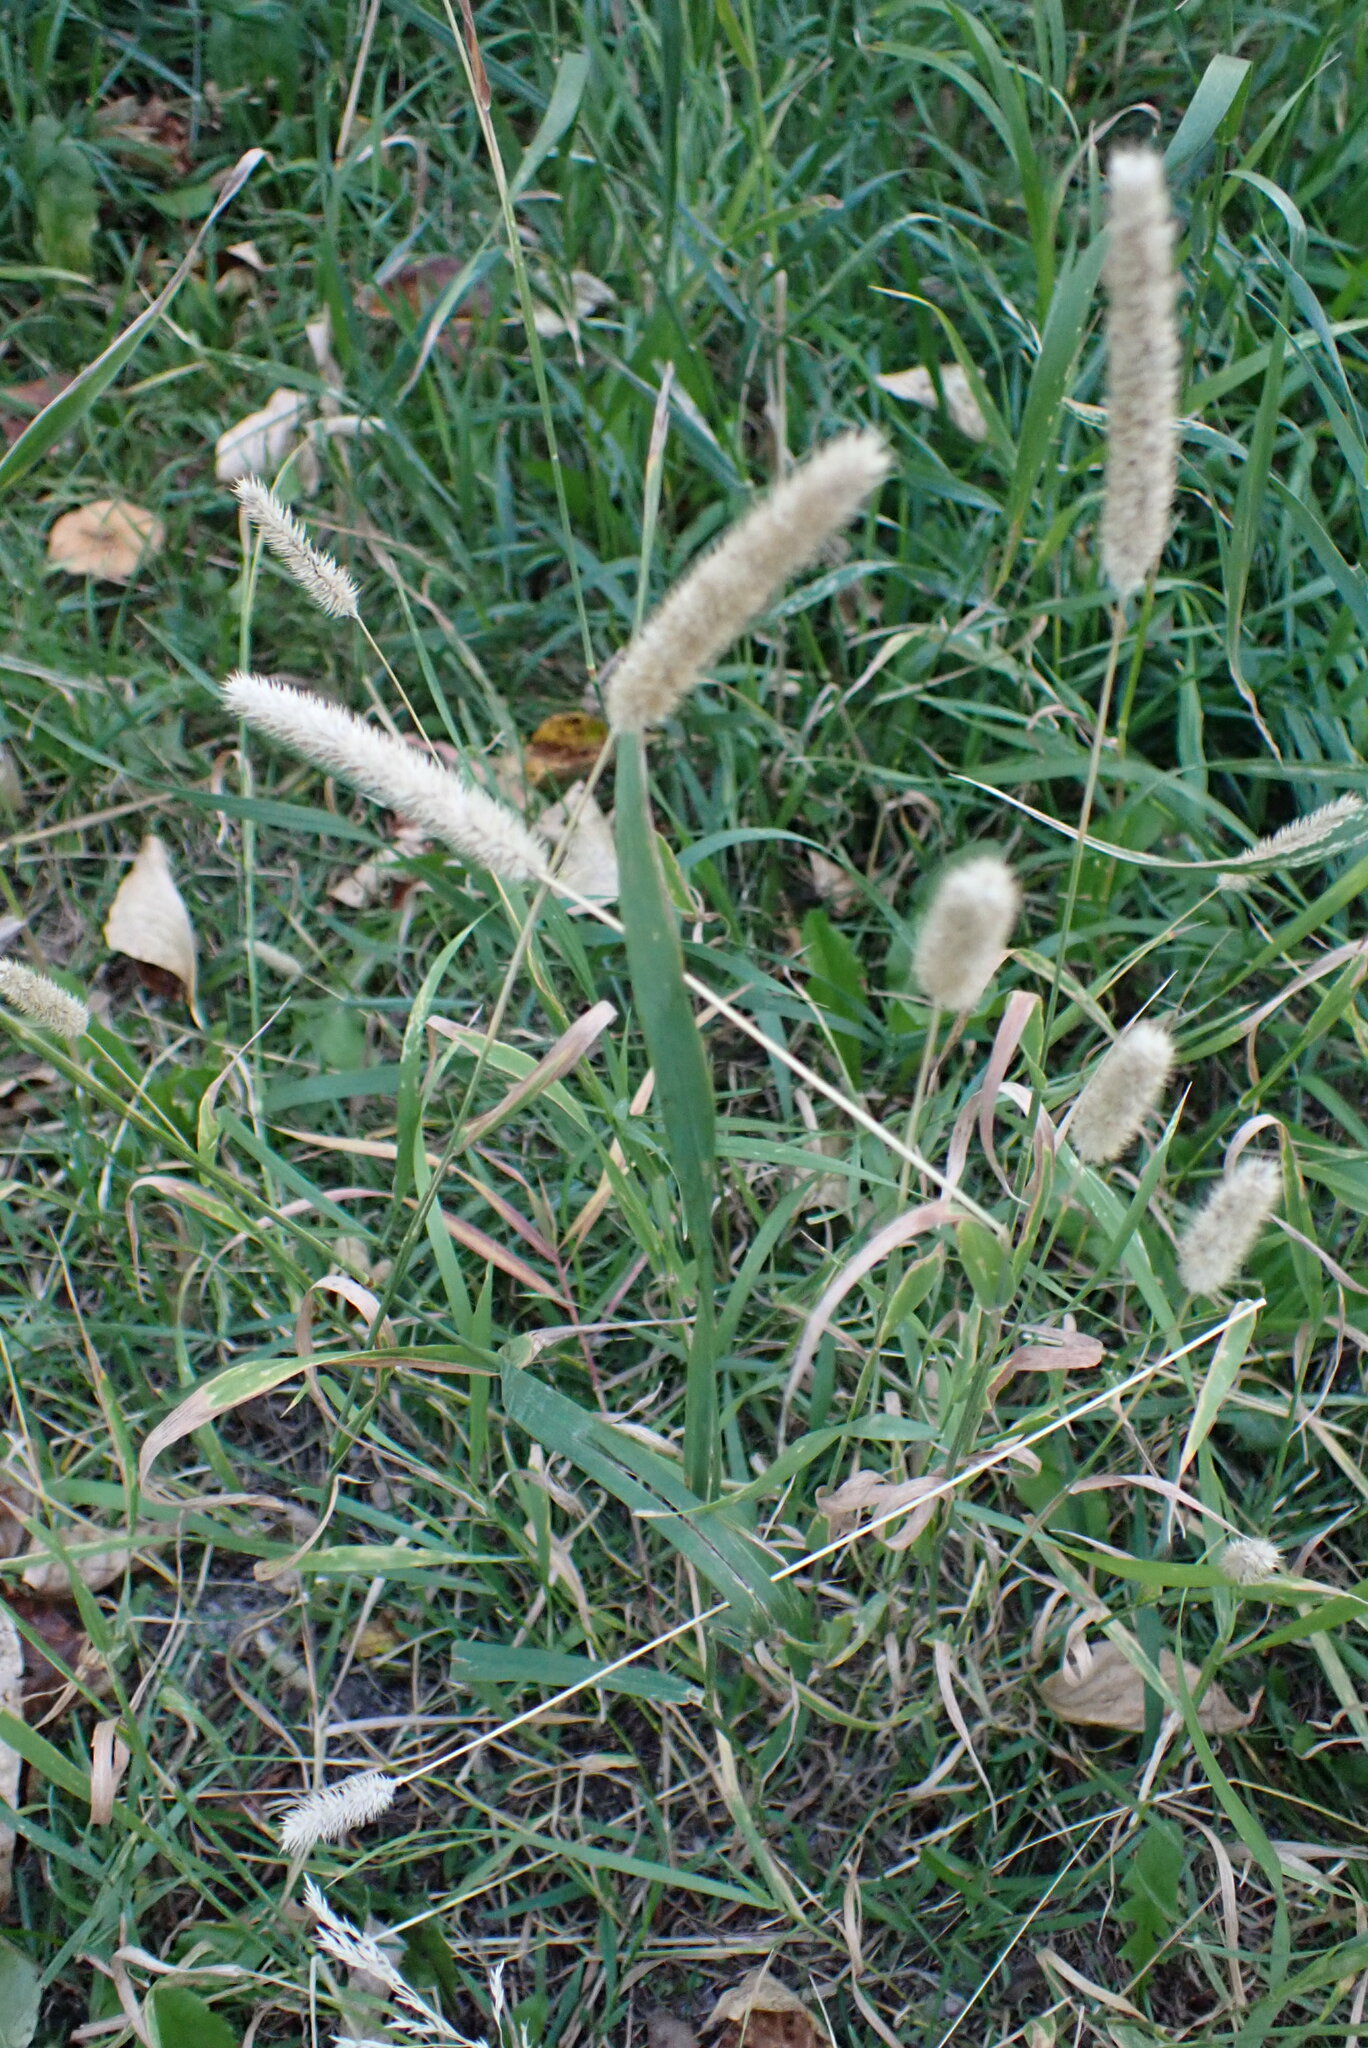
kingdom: Plantae
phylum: Tracheophyta
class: Liliopsida
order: Poales
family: Poaceae
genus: Phleum
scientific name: Phleum pratense
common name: Timothy grass
